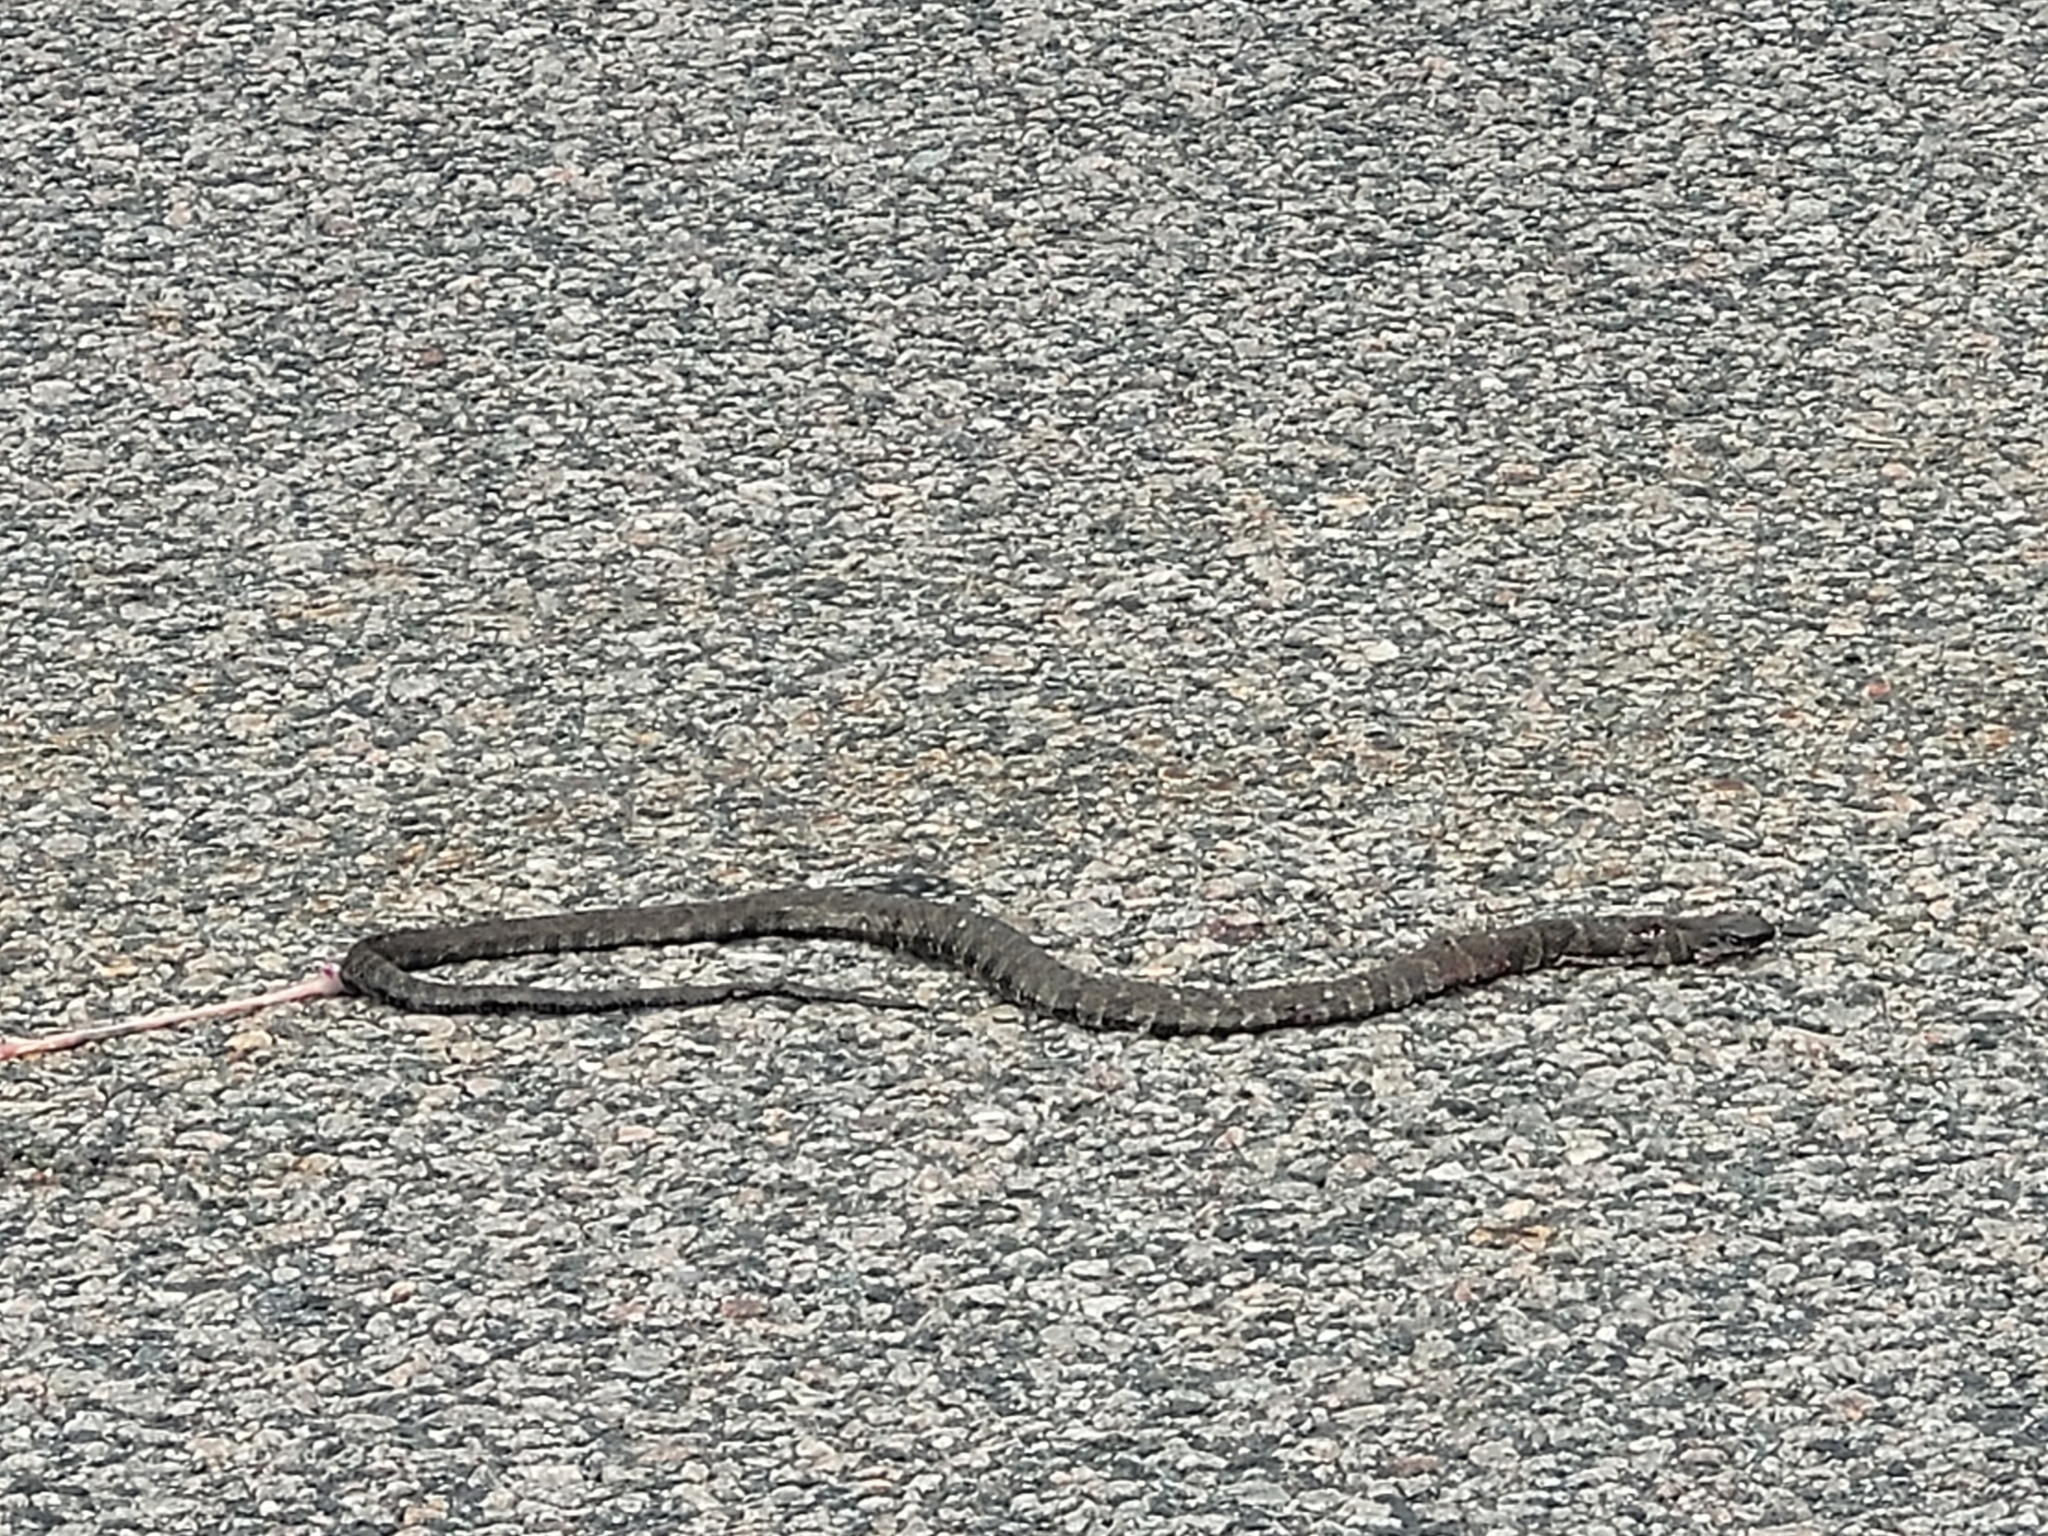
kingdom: Animalia
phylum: Chordata
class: Squamata
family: Colubridae
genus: Nerodia
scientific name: Nerodia sipedon
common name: Northern water snake
